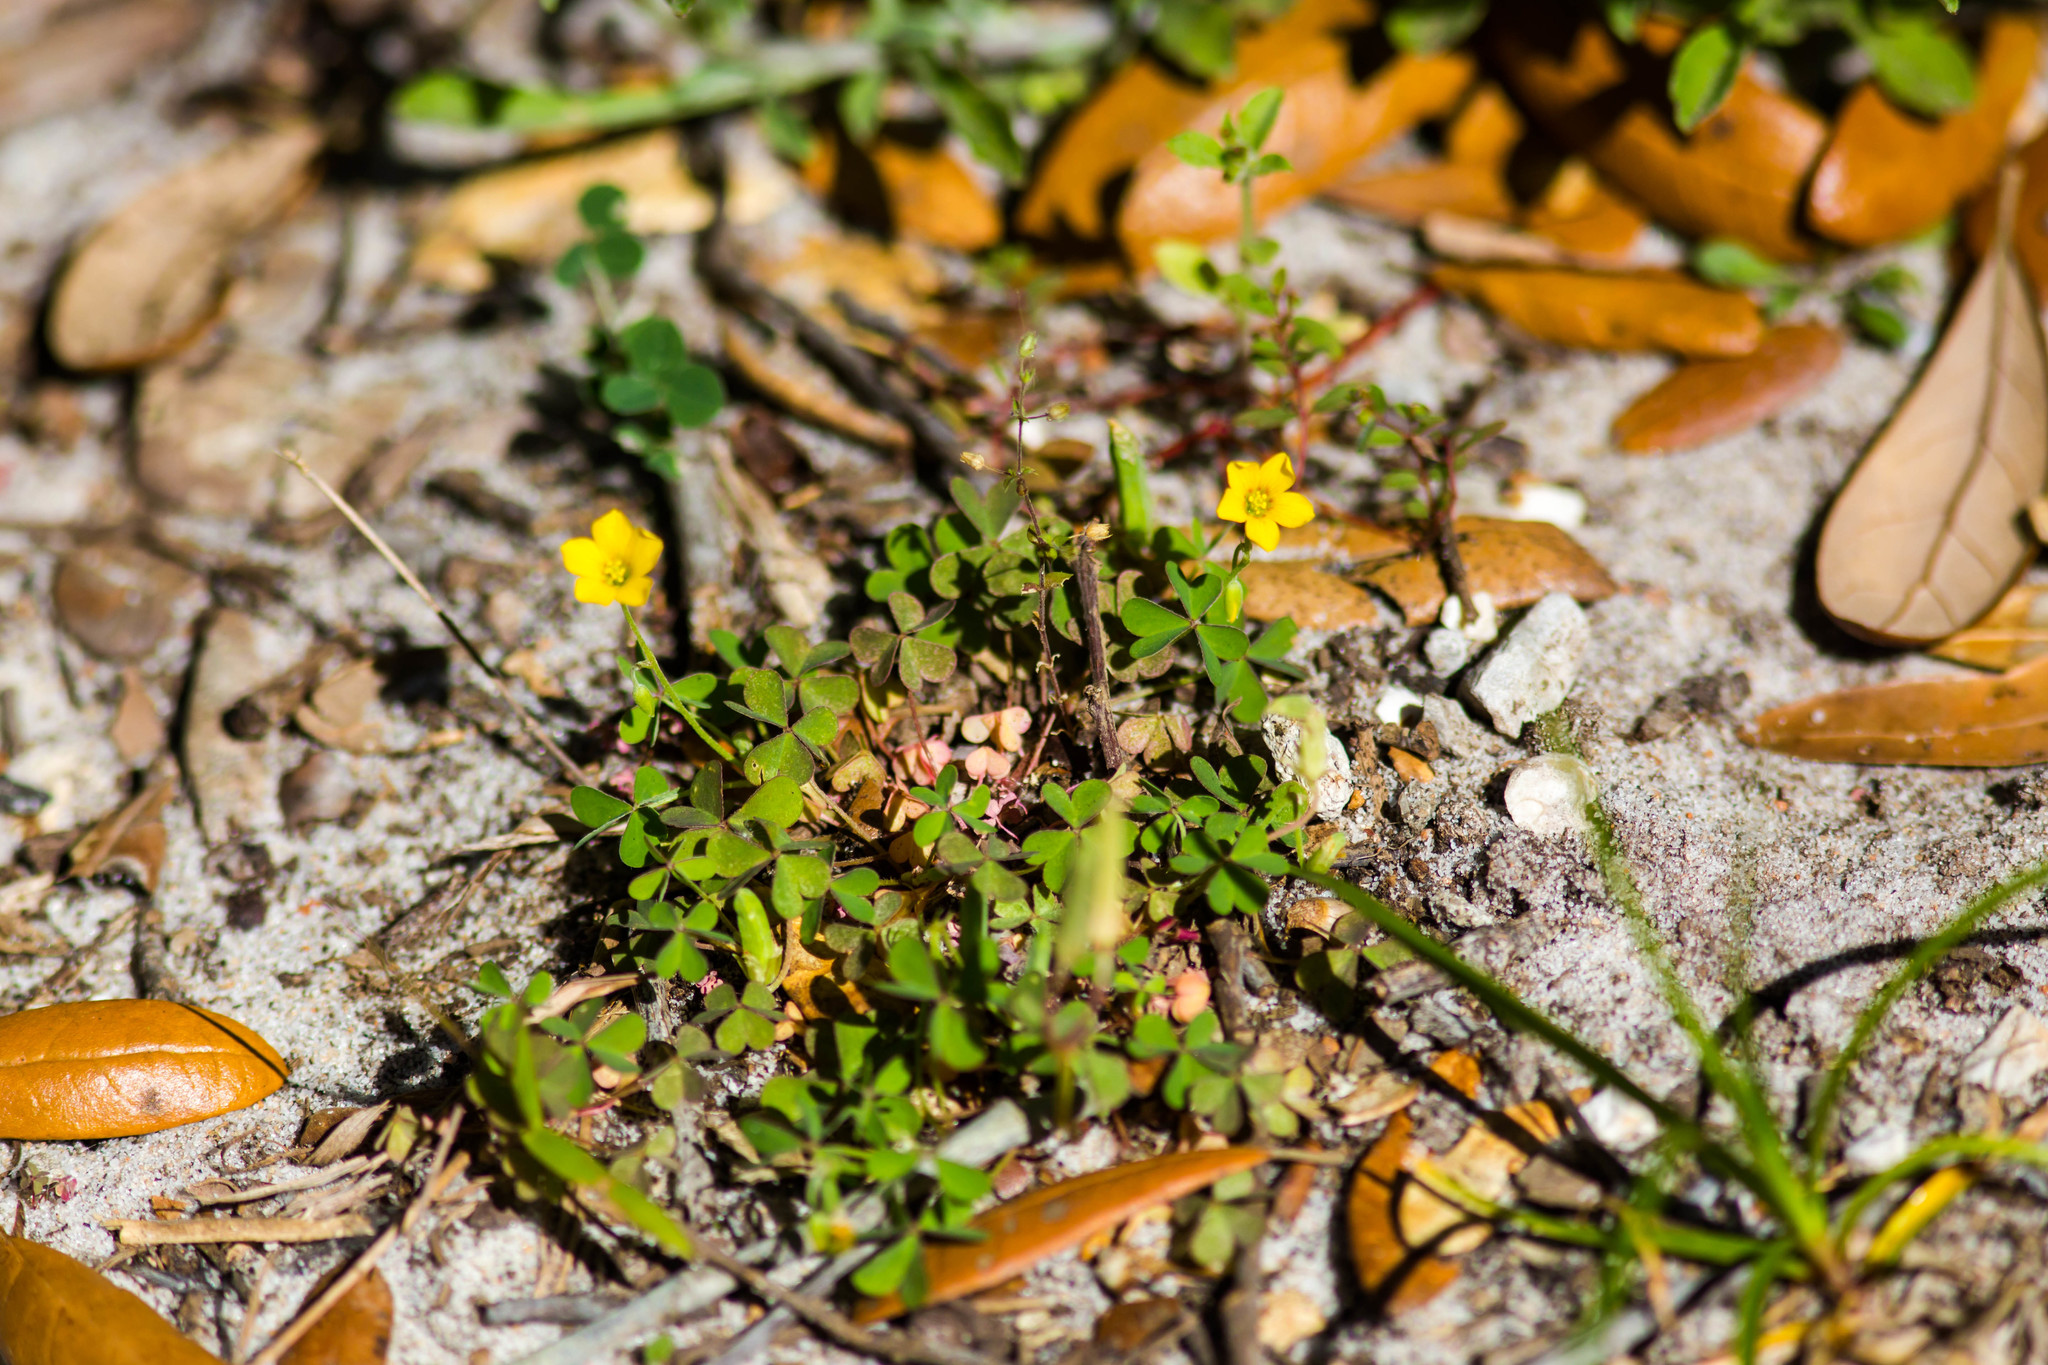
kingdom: Plantae
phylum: Tracheophyta
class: Magnoliopsida
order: Oxalidales
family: Oxalidaceae
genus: Oxalis
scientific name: Oxalis corniculata
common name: Procumbent yellow-sorrel
